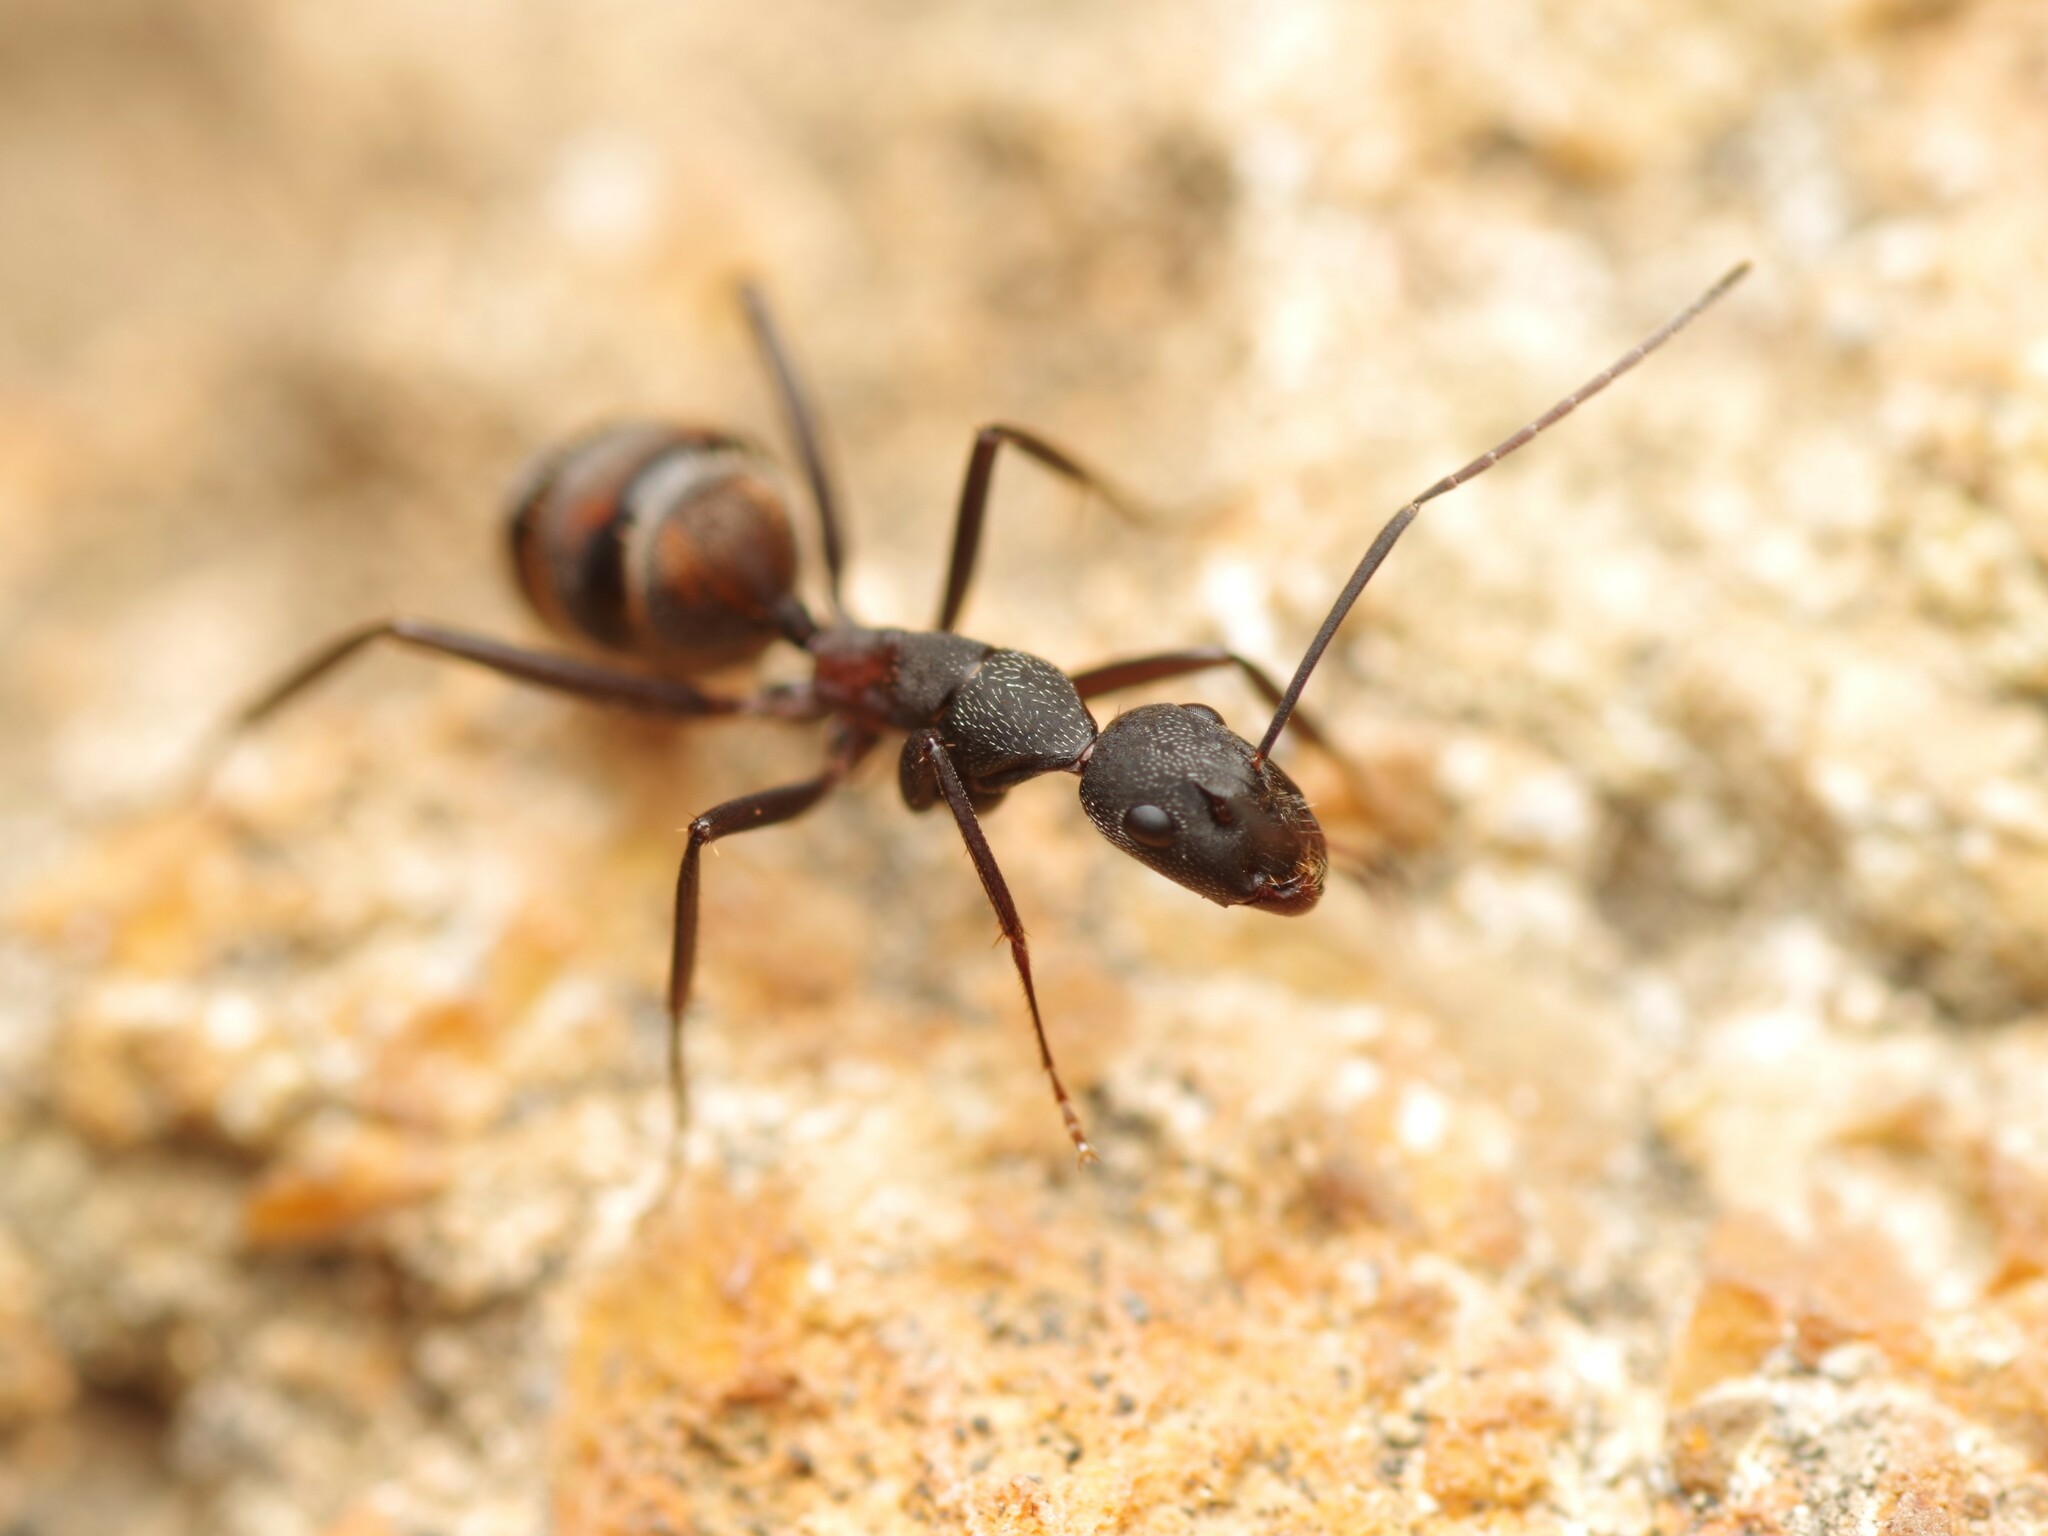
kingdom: Animalia
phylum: Arthropoda
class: Insecta
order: Hymenoptera
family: Formicidae
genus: Camponotus
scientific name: Camponotus cruentatus
